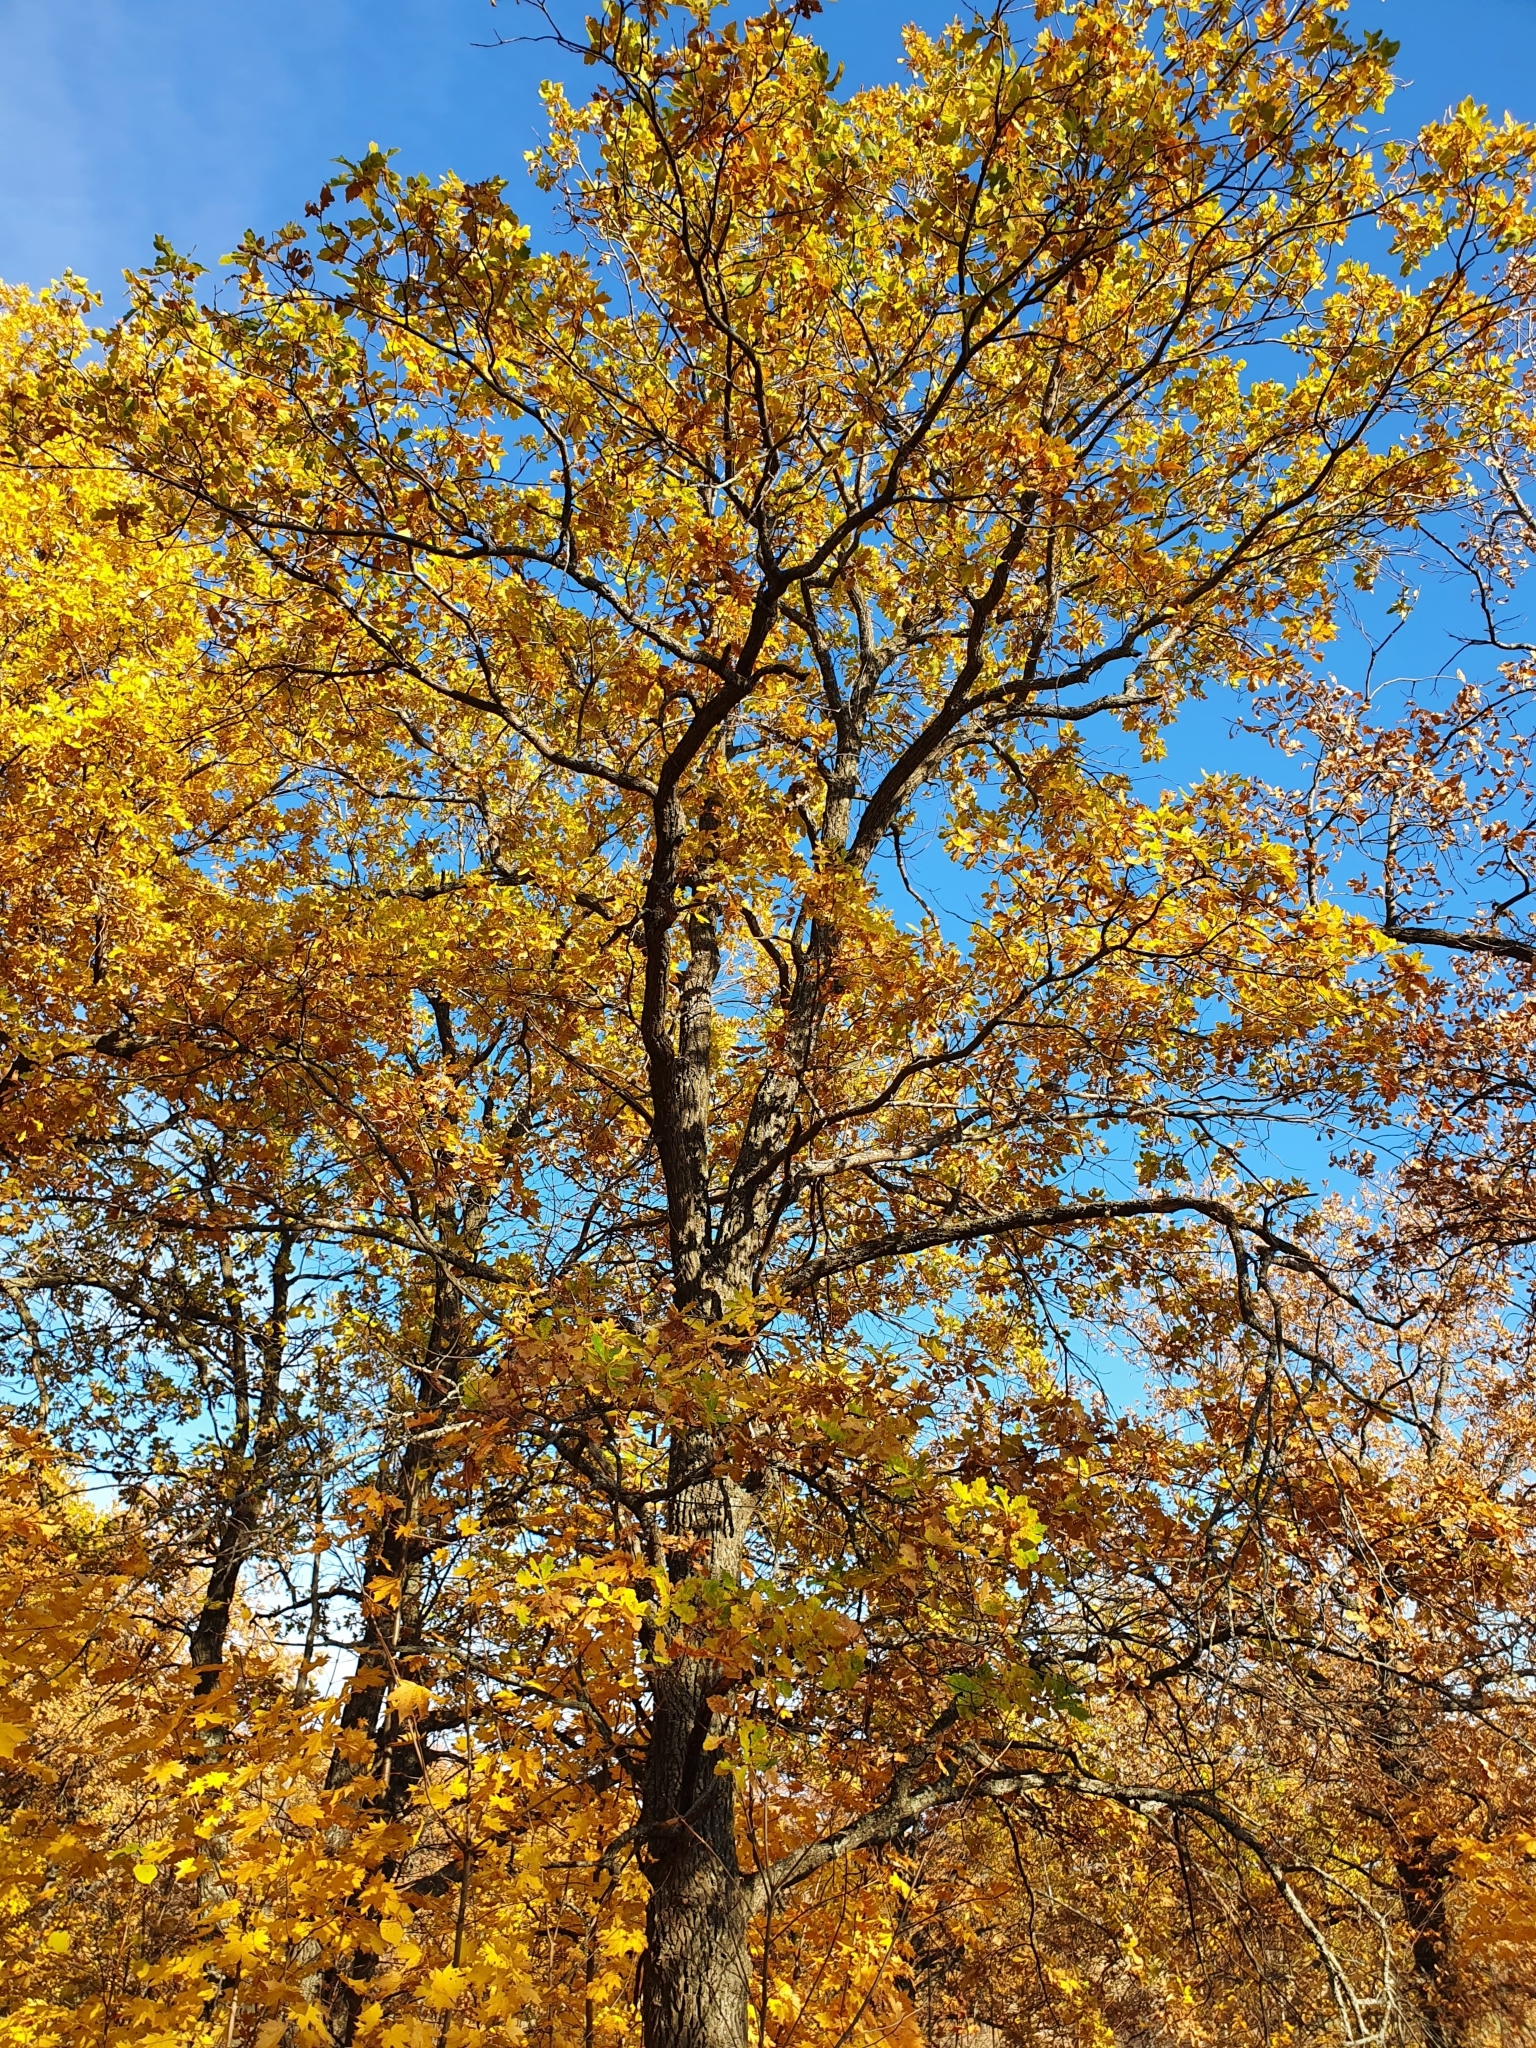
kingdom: Plantae
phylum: Tracheophyta
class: Magnoliopsida
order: Fagales
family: Fagaceae
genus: Quercus
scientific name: Quercus robur
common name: Pedunculate oak
